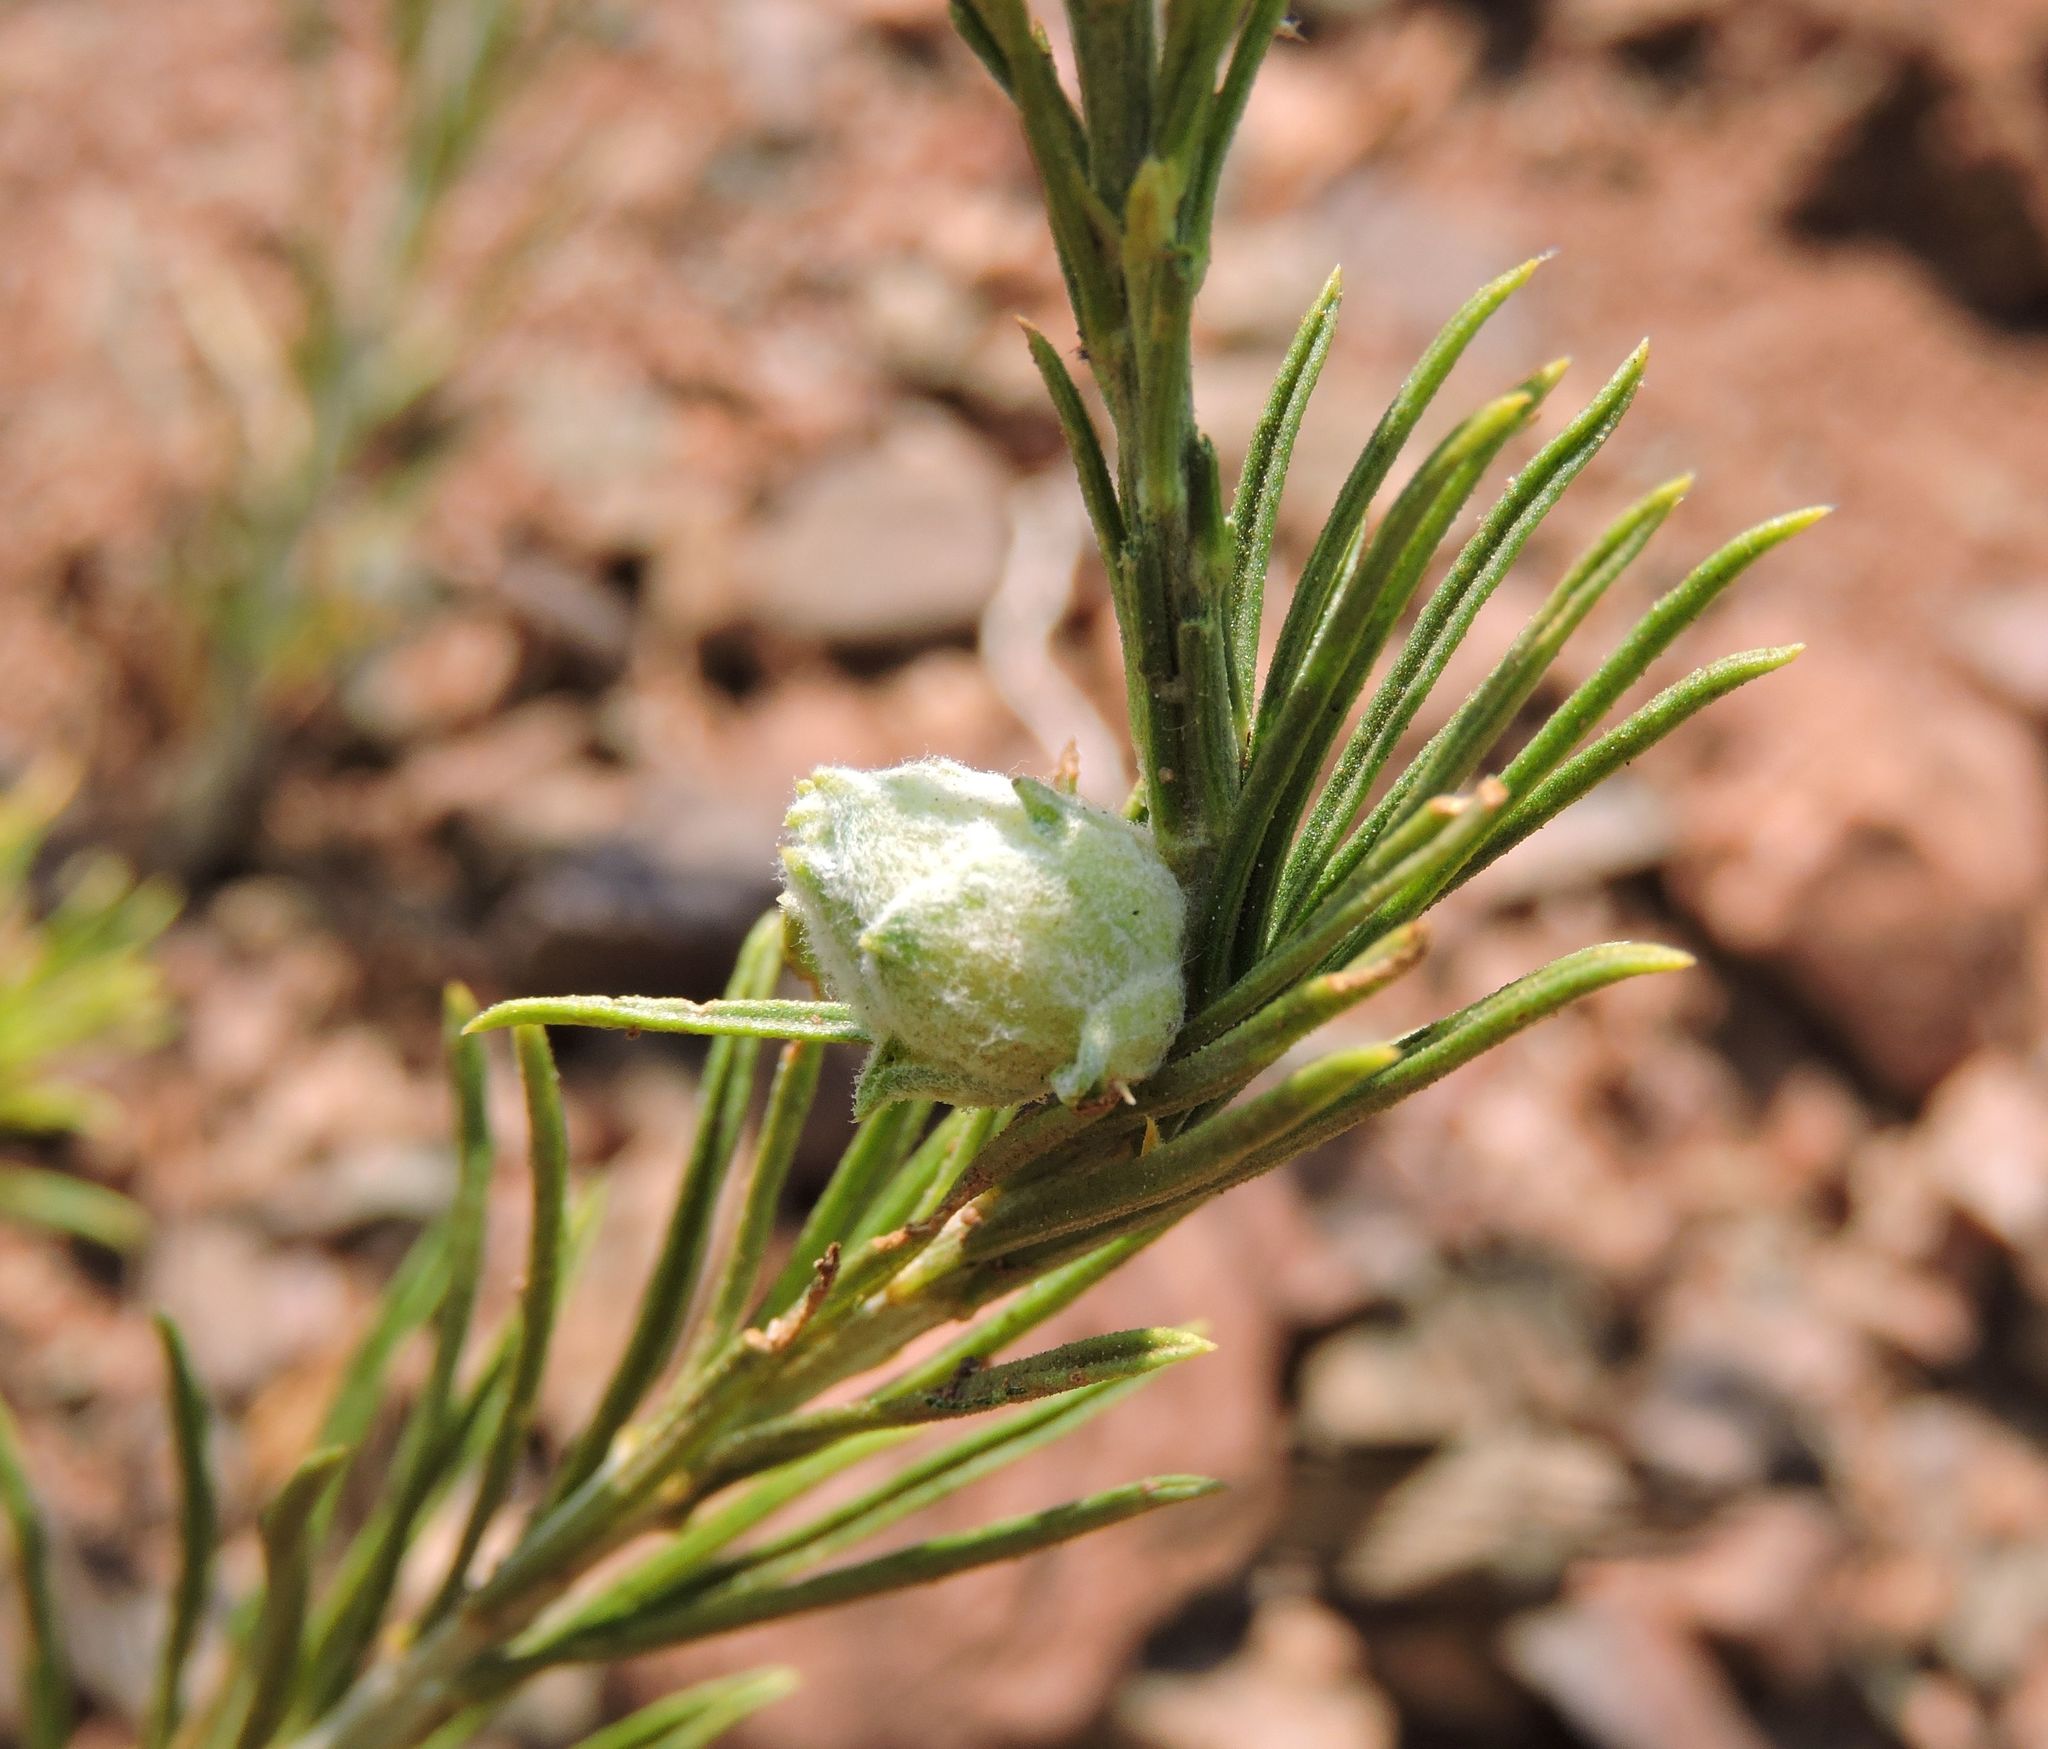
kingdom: Plantae
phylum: Tracheophyta
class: Magnoliopsida
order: Asterales
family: Asteraceae
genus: Ericameria
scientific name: Ericameria nauseosa
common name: Rubber rabbitbrush
